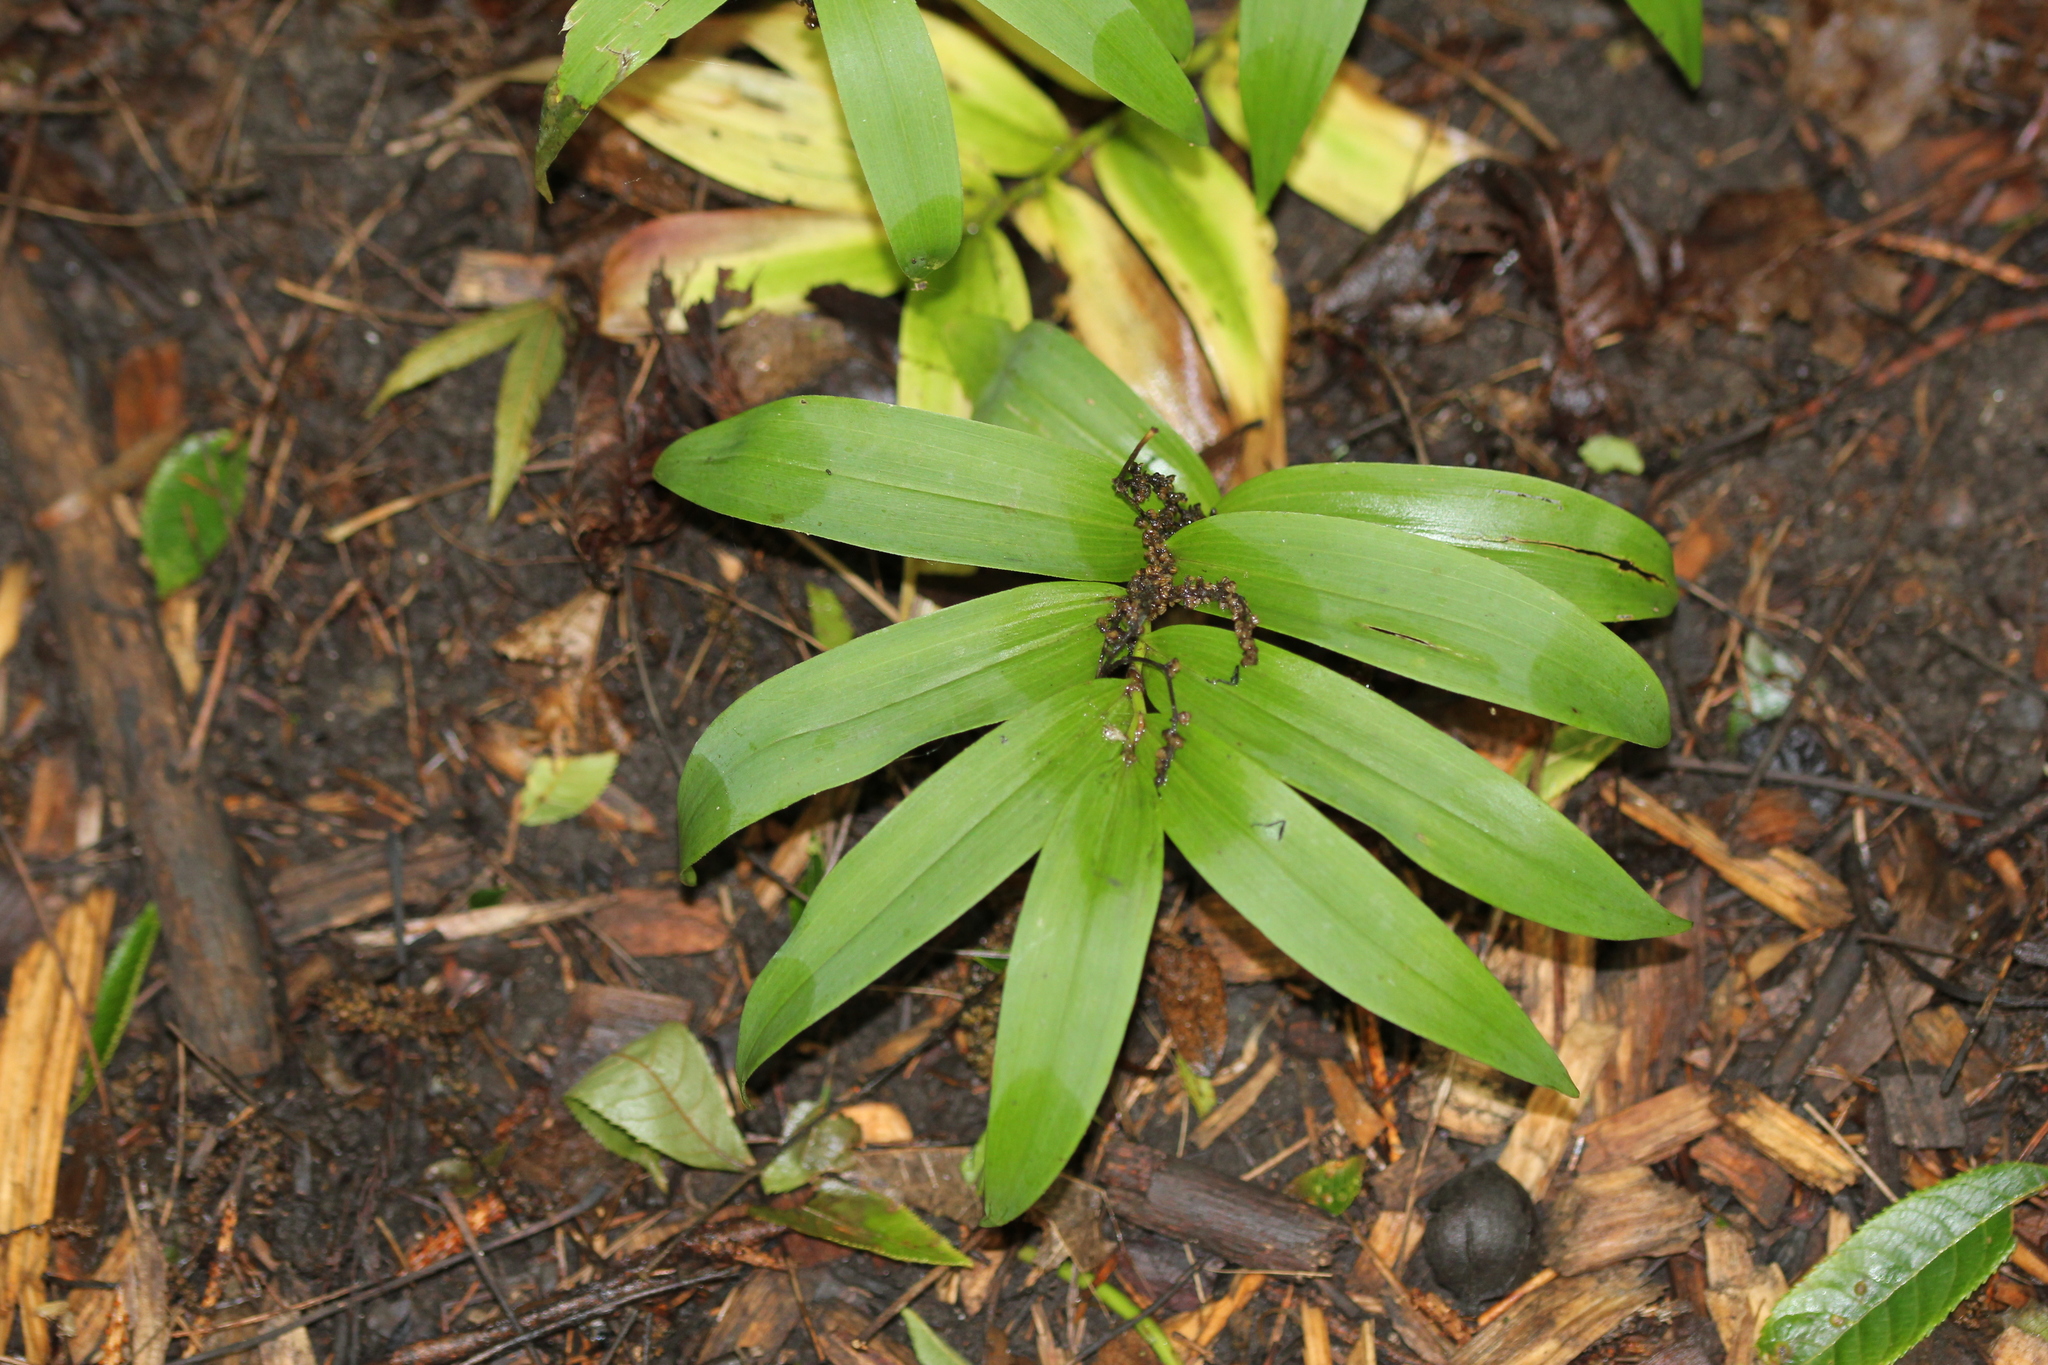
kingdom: Plantae
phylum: Tracheophyta
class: Liliopsida
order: Asparagales
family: Asparagaceae
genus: Maianthemum
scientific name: Maianthemum stellatum
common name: Little false solomon's seal
